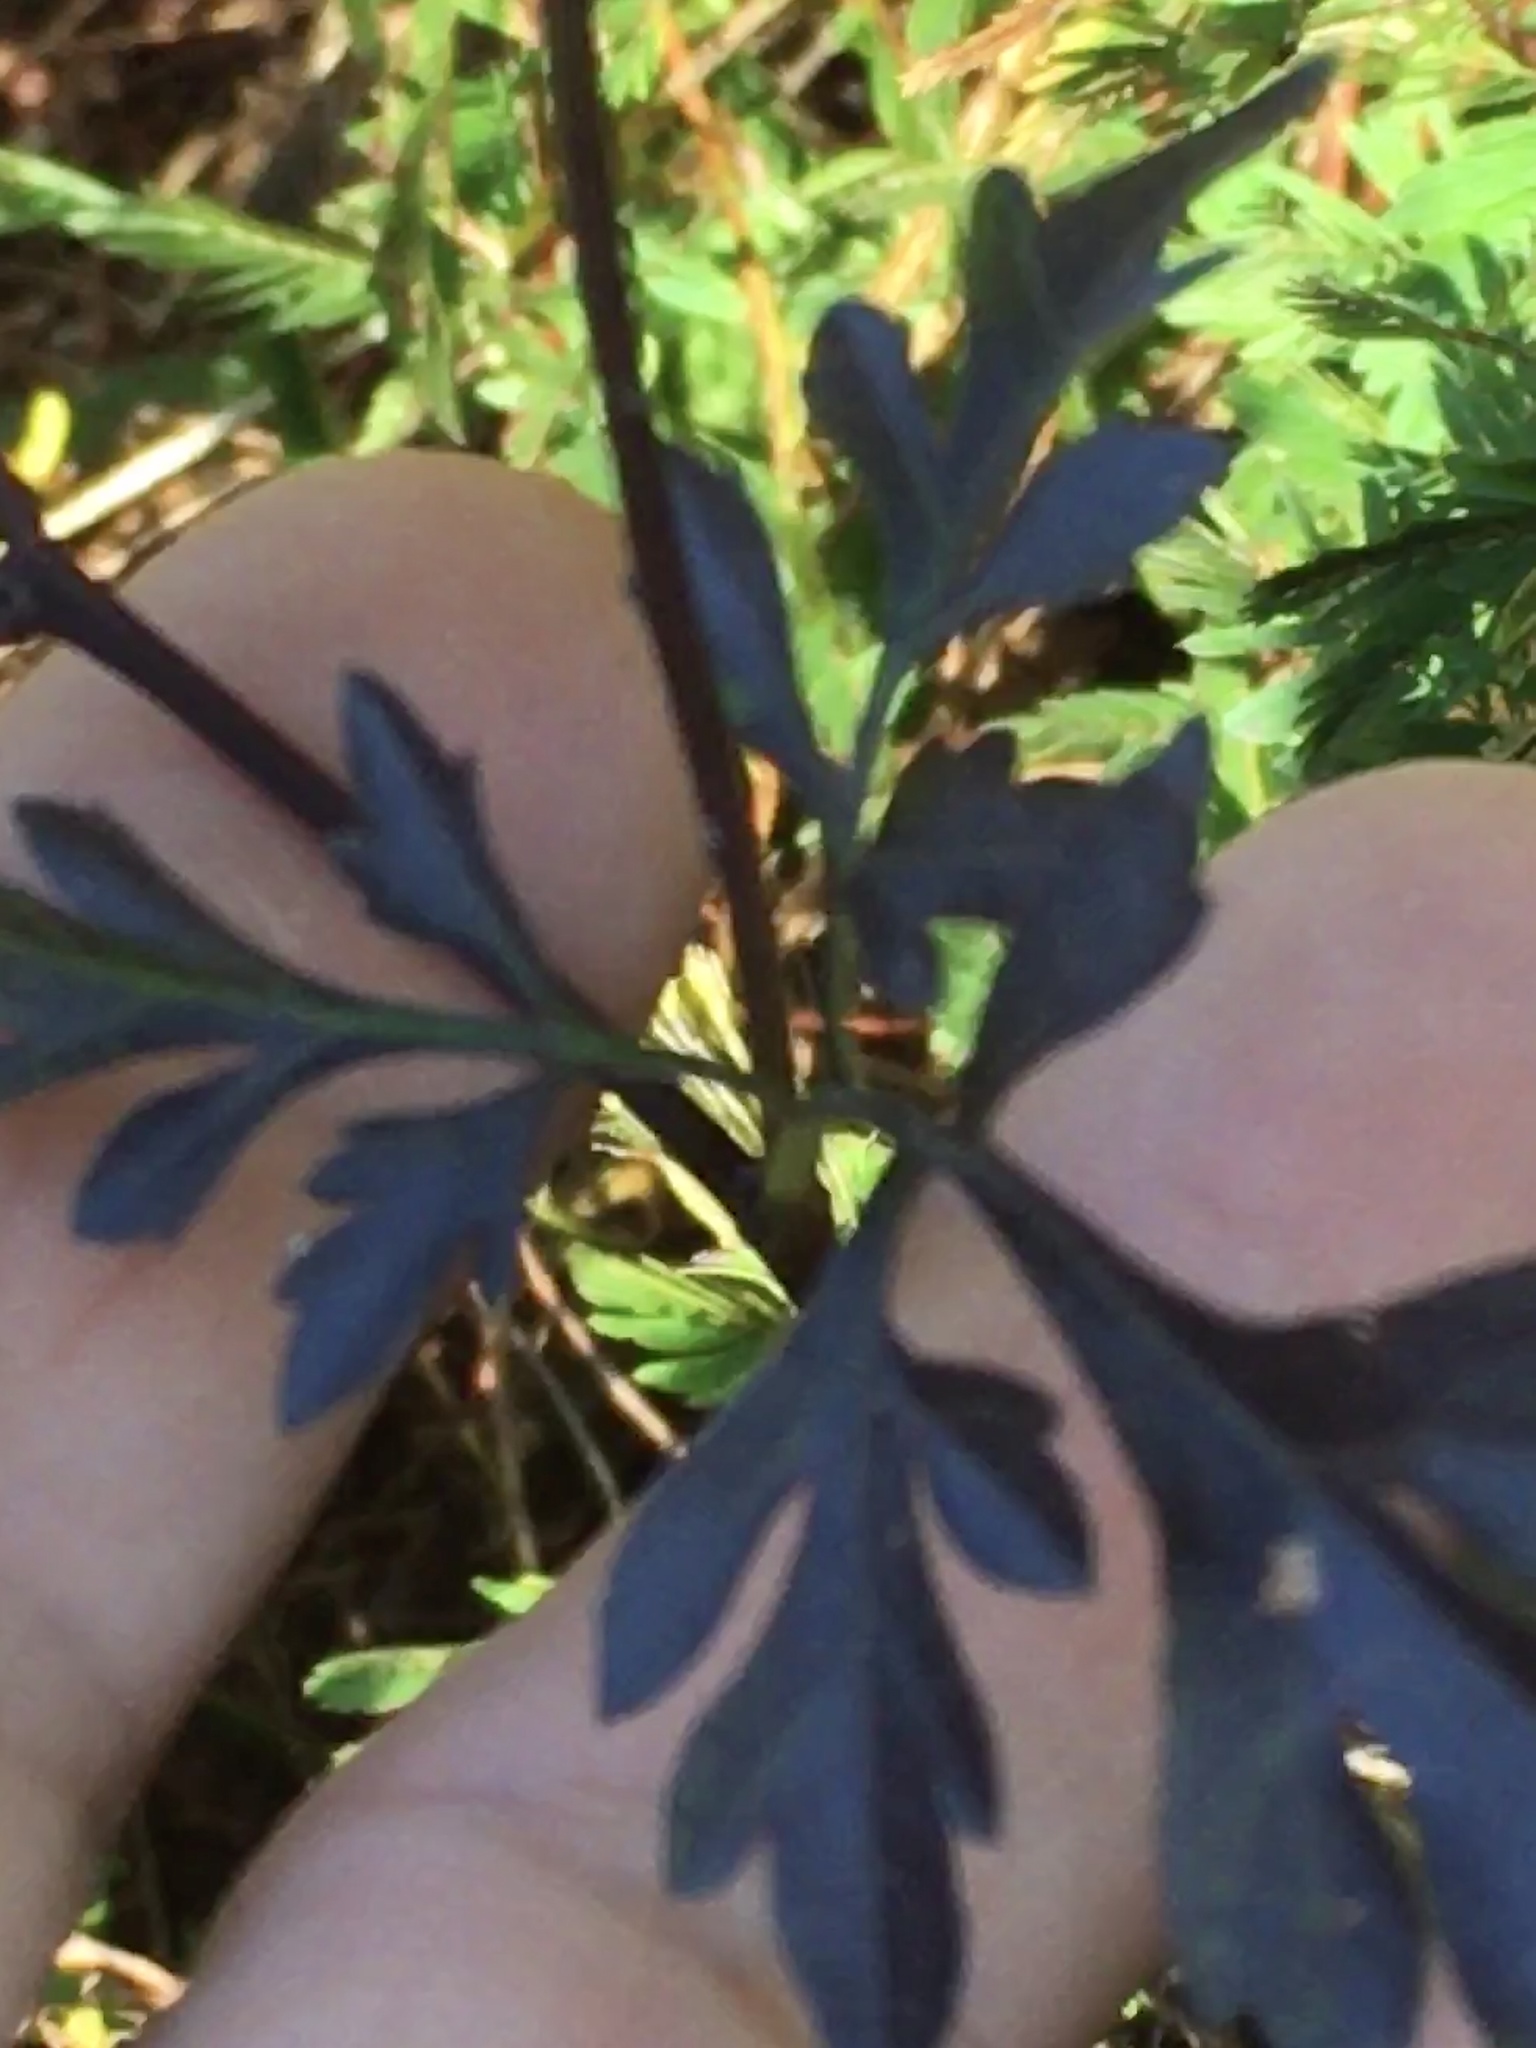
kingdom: Plantae
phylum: Tracheophyta
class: Magnoliopsida
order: Asterales
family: Asteraceae
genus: Bidens
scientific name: Bidens bipinnata
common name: Spanish-needles
